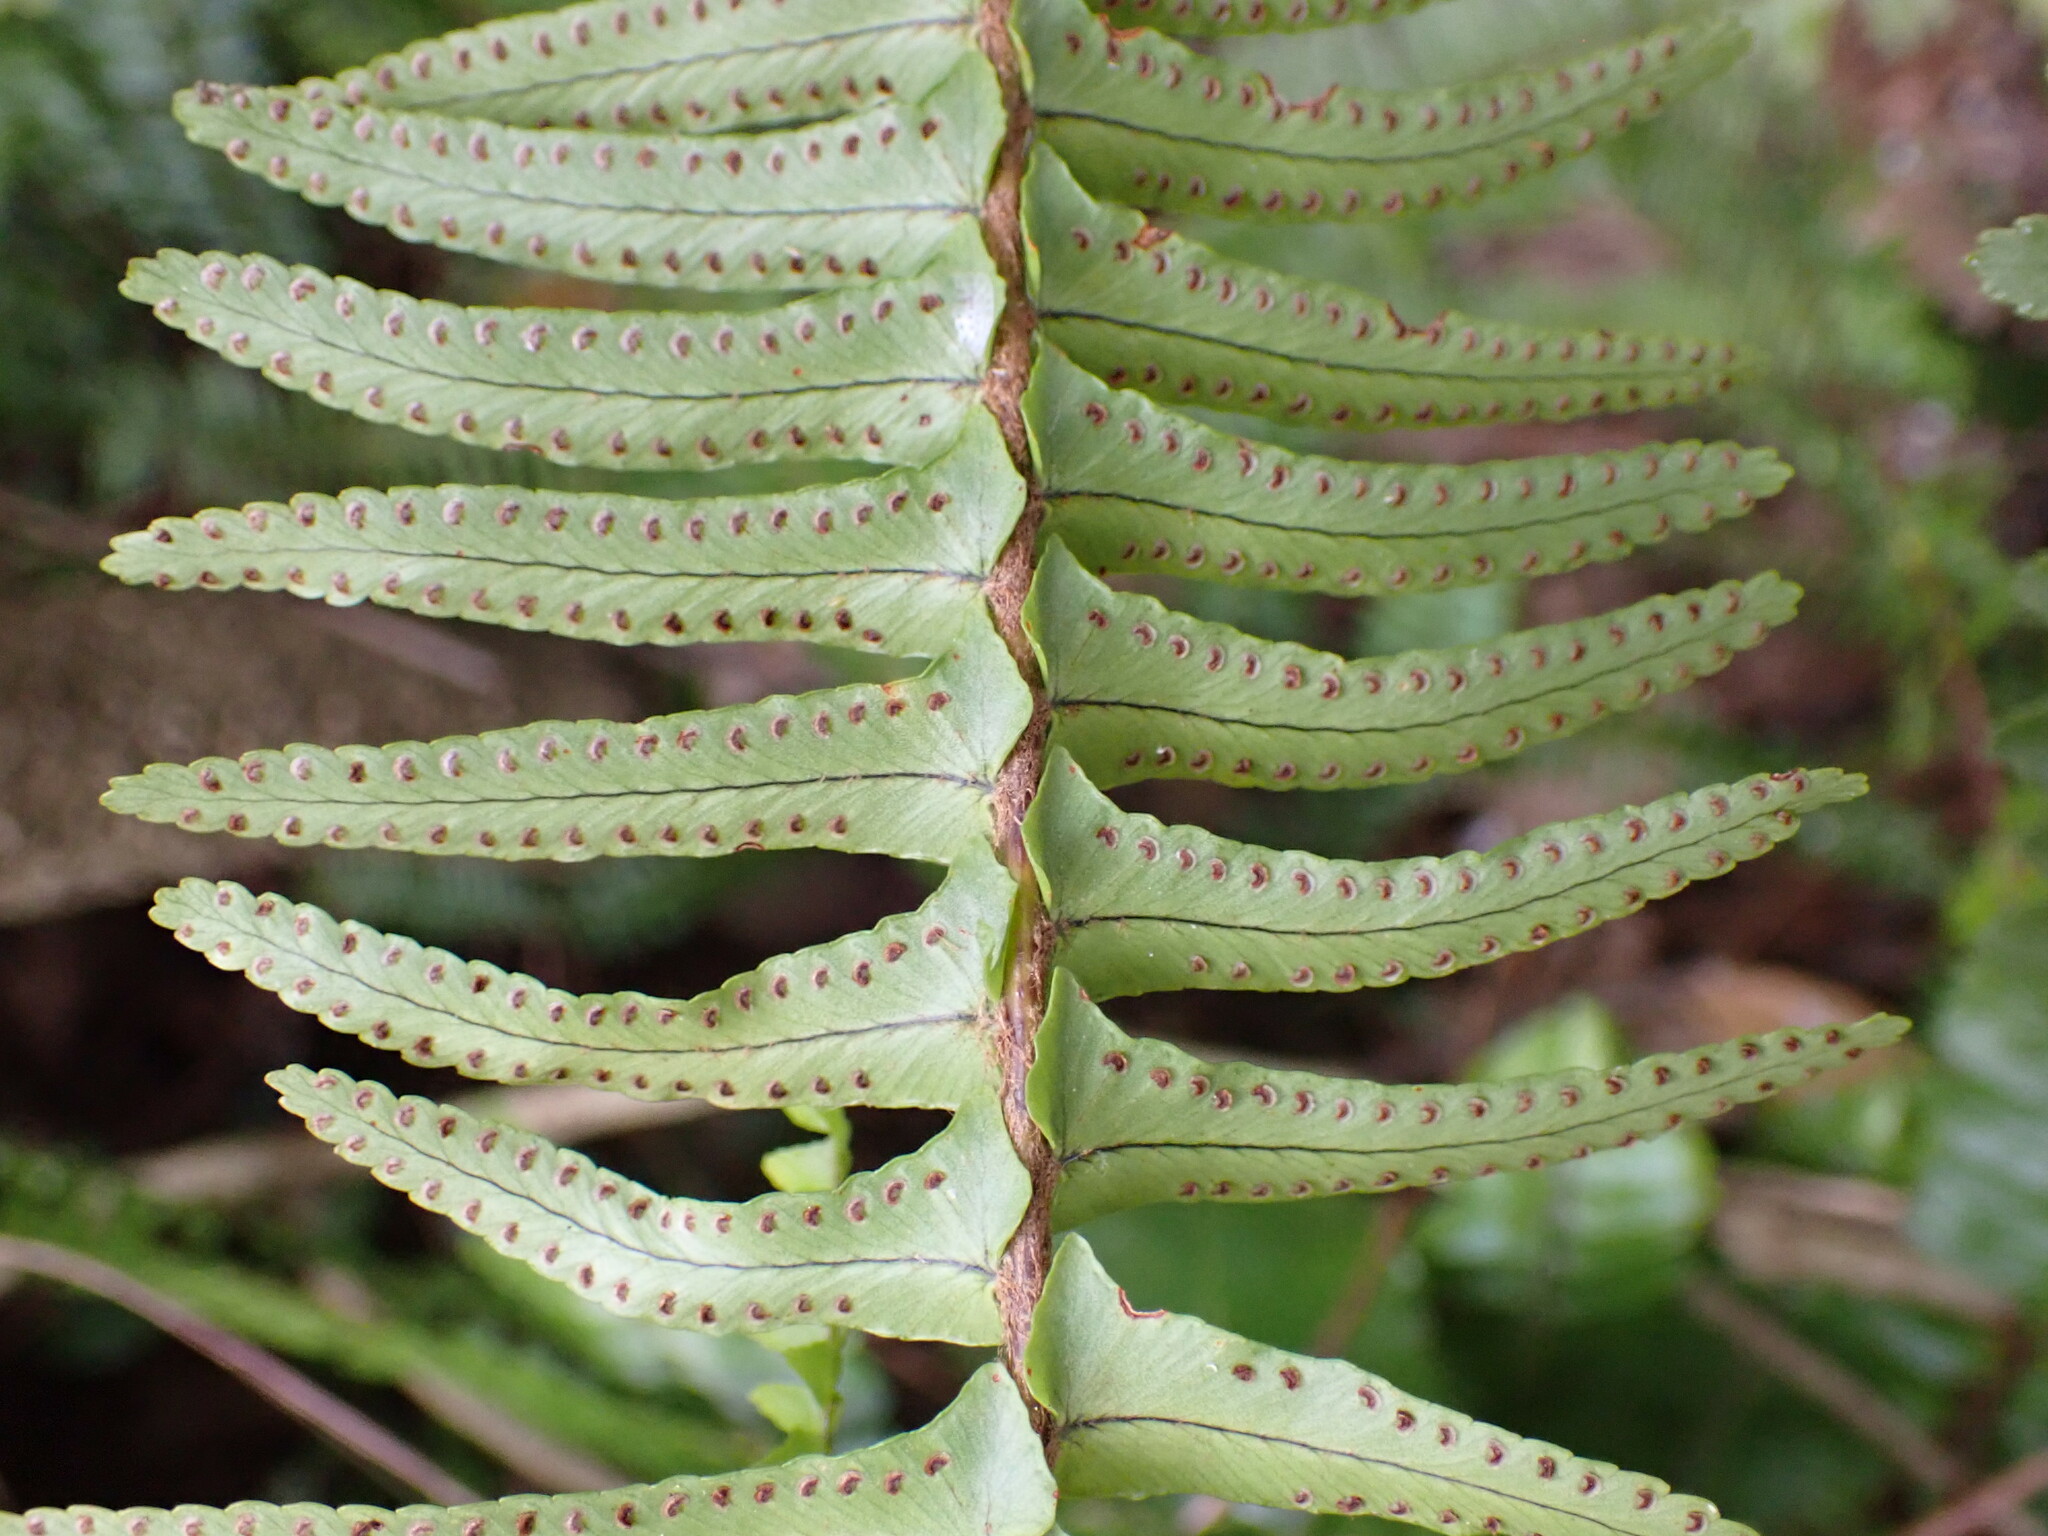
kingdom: Plantae
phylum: Tracheophyta
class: Polypodiopsida
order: Polypodiales
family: Nephrolepidaceae
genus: Nephrolepis
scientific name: Nephrolepis cordifolia
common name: Narrow swordfern
